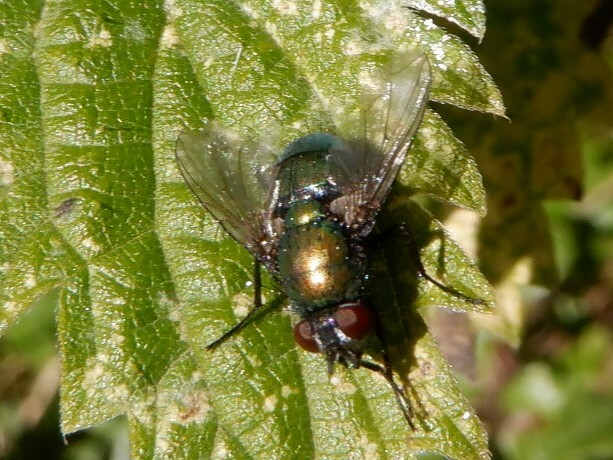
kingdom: Animalia
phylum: Arthropoda
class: Insecta
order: Diptera
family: Calliphoridae
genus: Lucilia
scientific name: Lucilia
